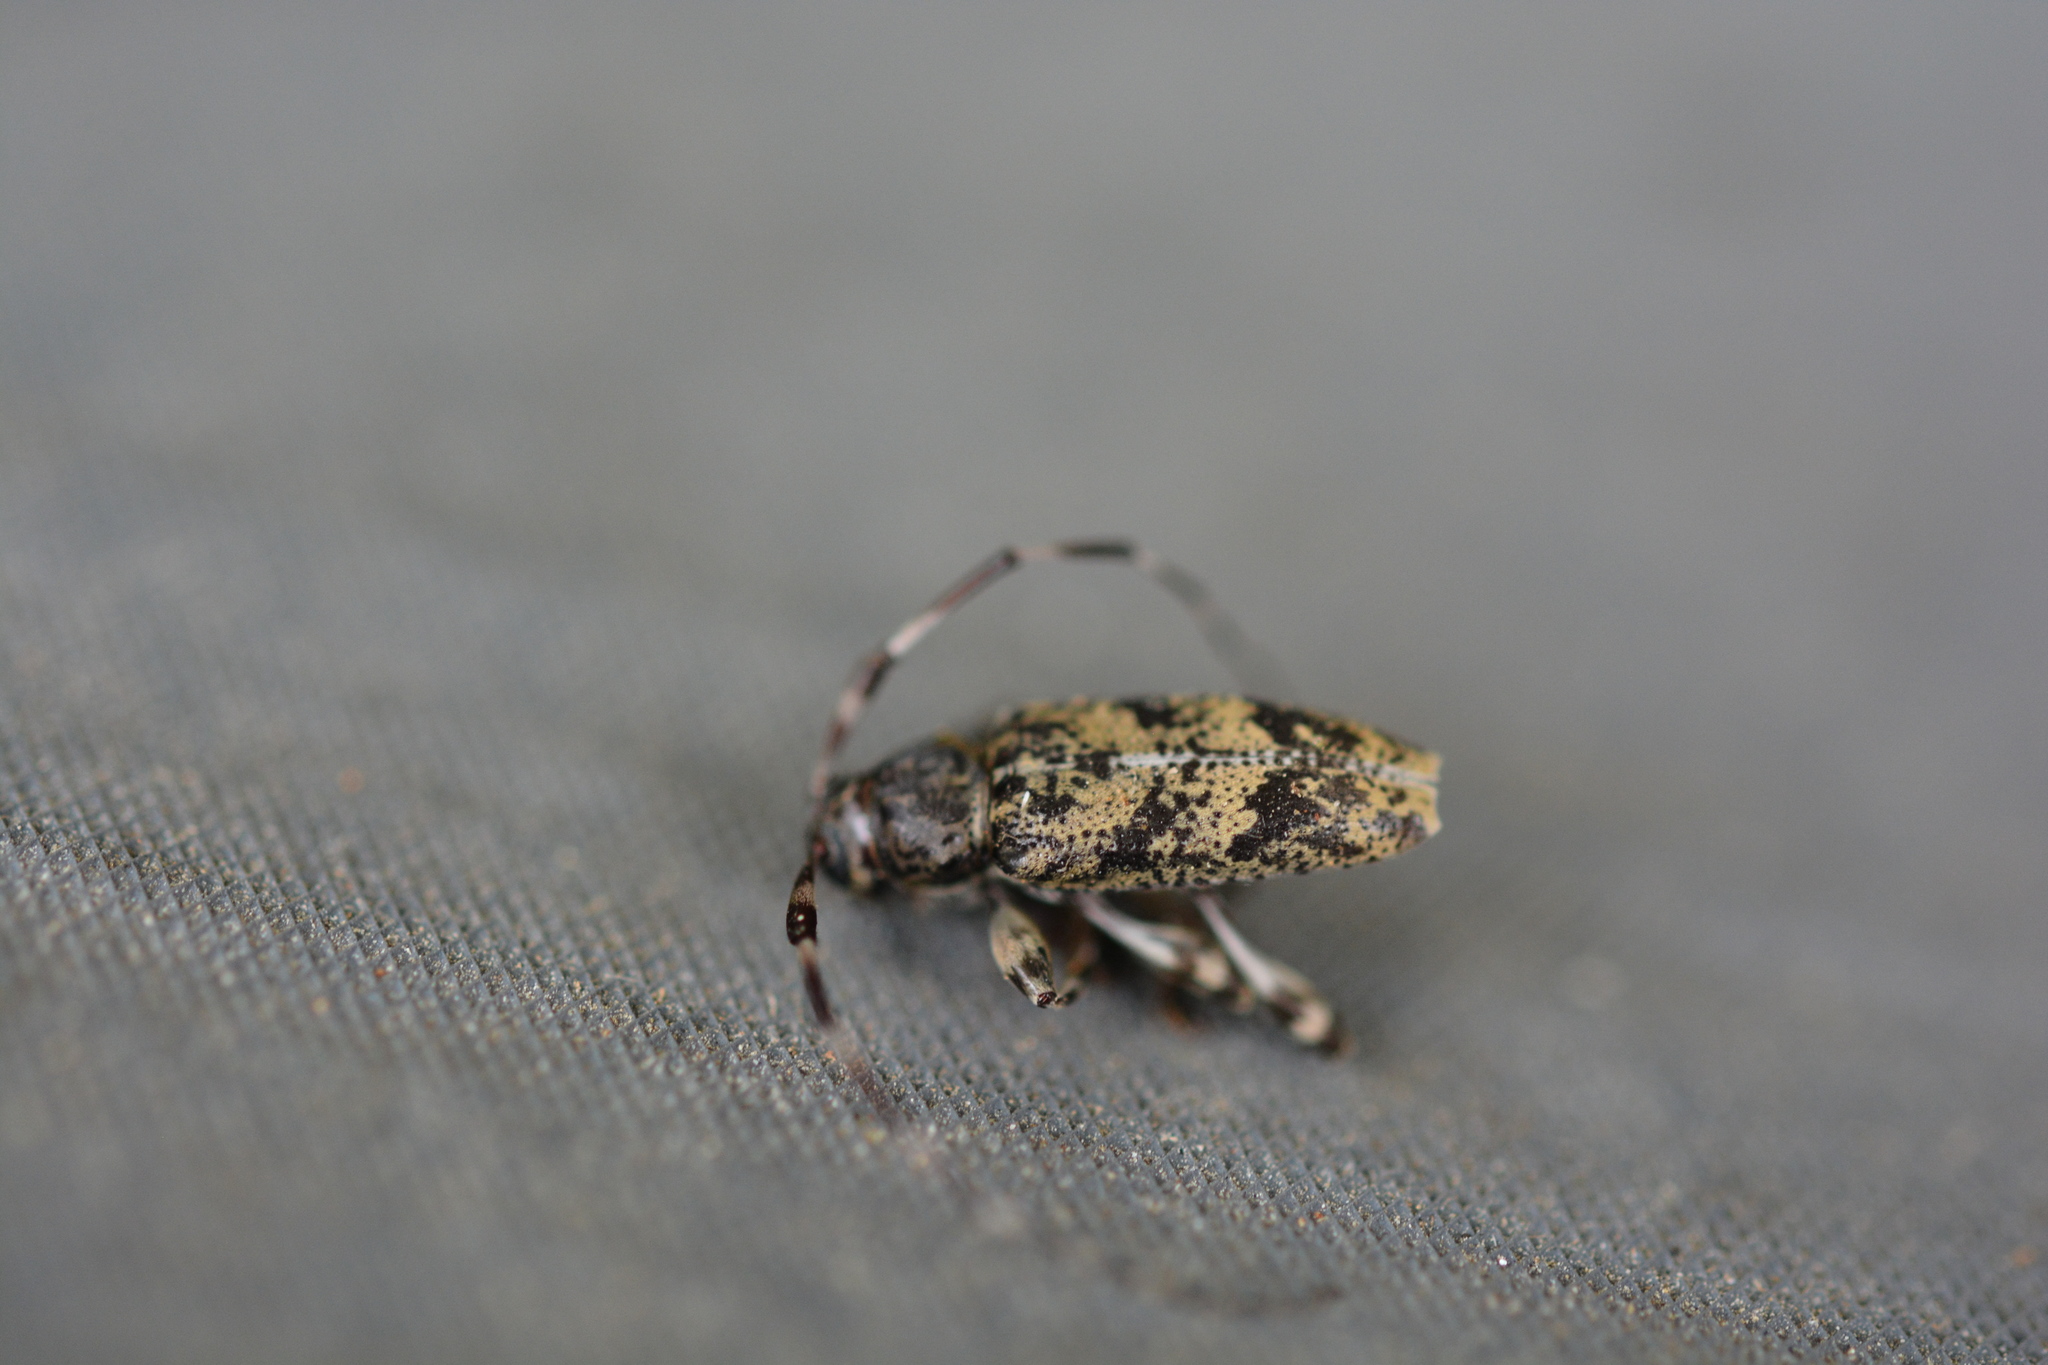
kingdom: Animalia
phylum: Arthropoda
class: Insecta
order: Coleoptera
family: Cerambycidae
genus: Graphisurus
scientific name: Graphisurus fasciatus
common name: Banded graphisurus
